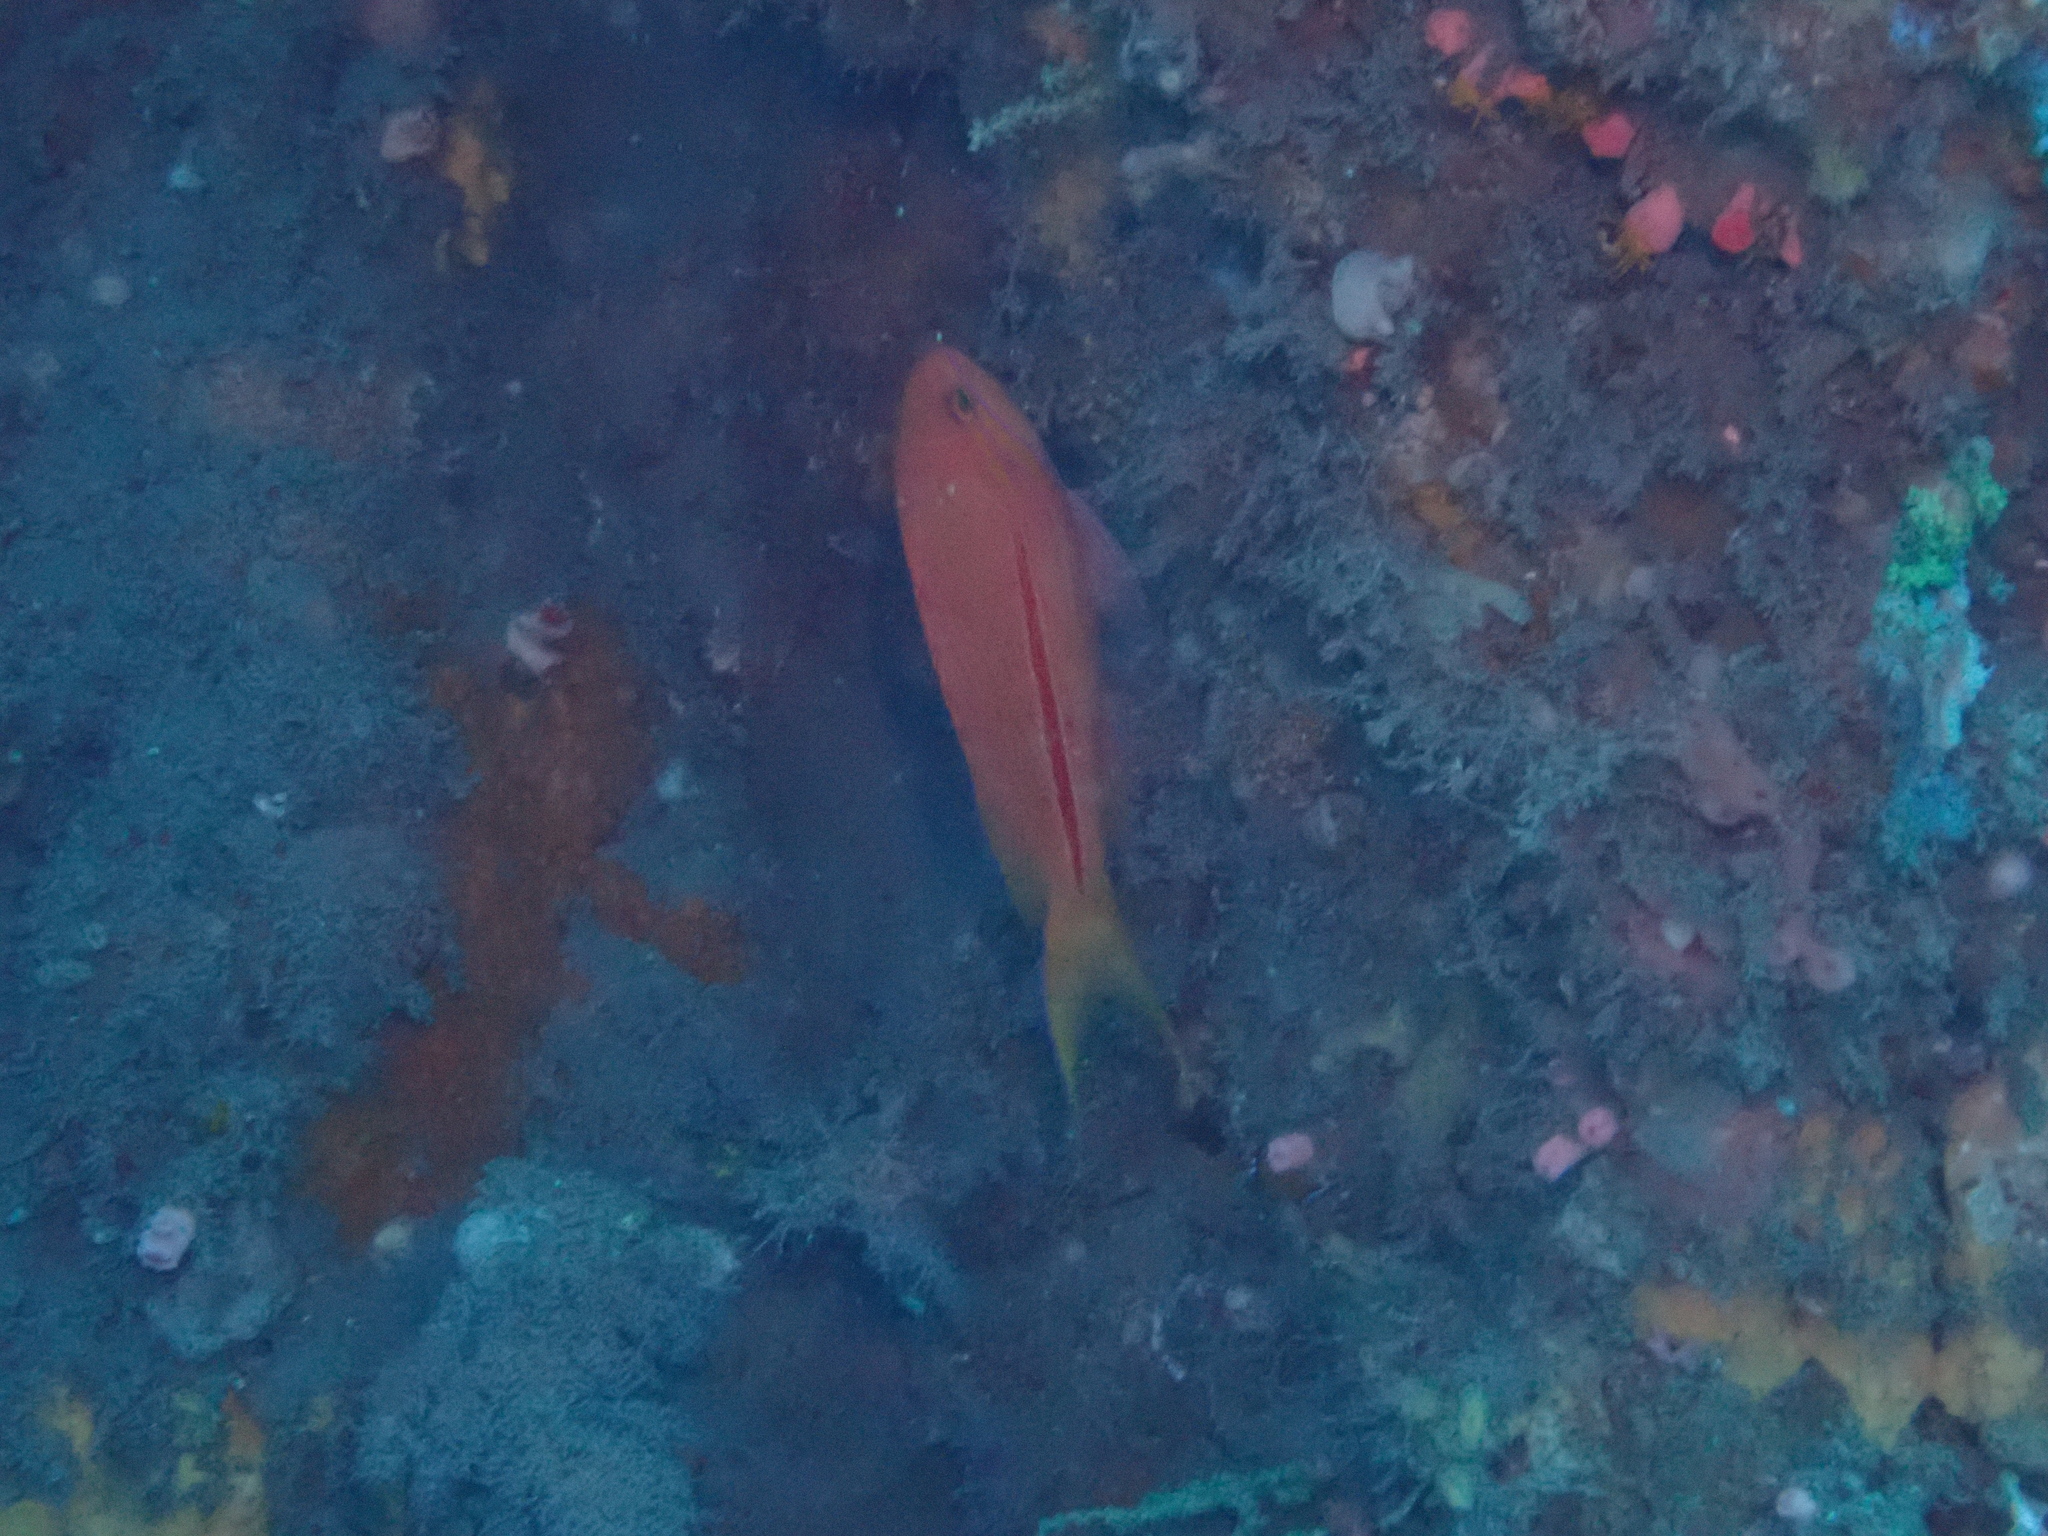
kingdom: Animalia
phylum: Chordata
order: Perciformes
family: Serranidae
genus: Pseudanthias
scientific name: Pseudanthias fasciatus
